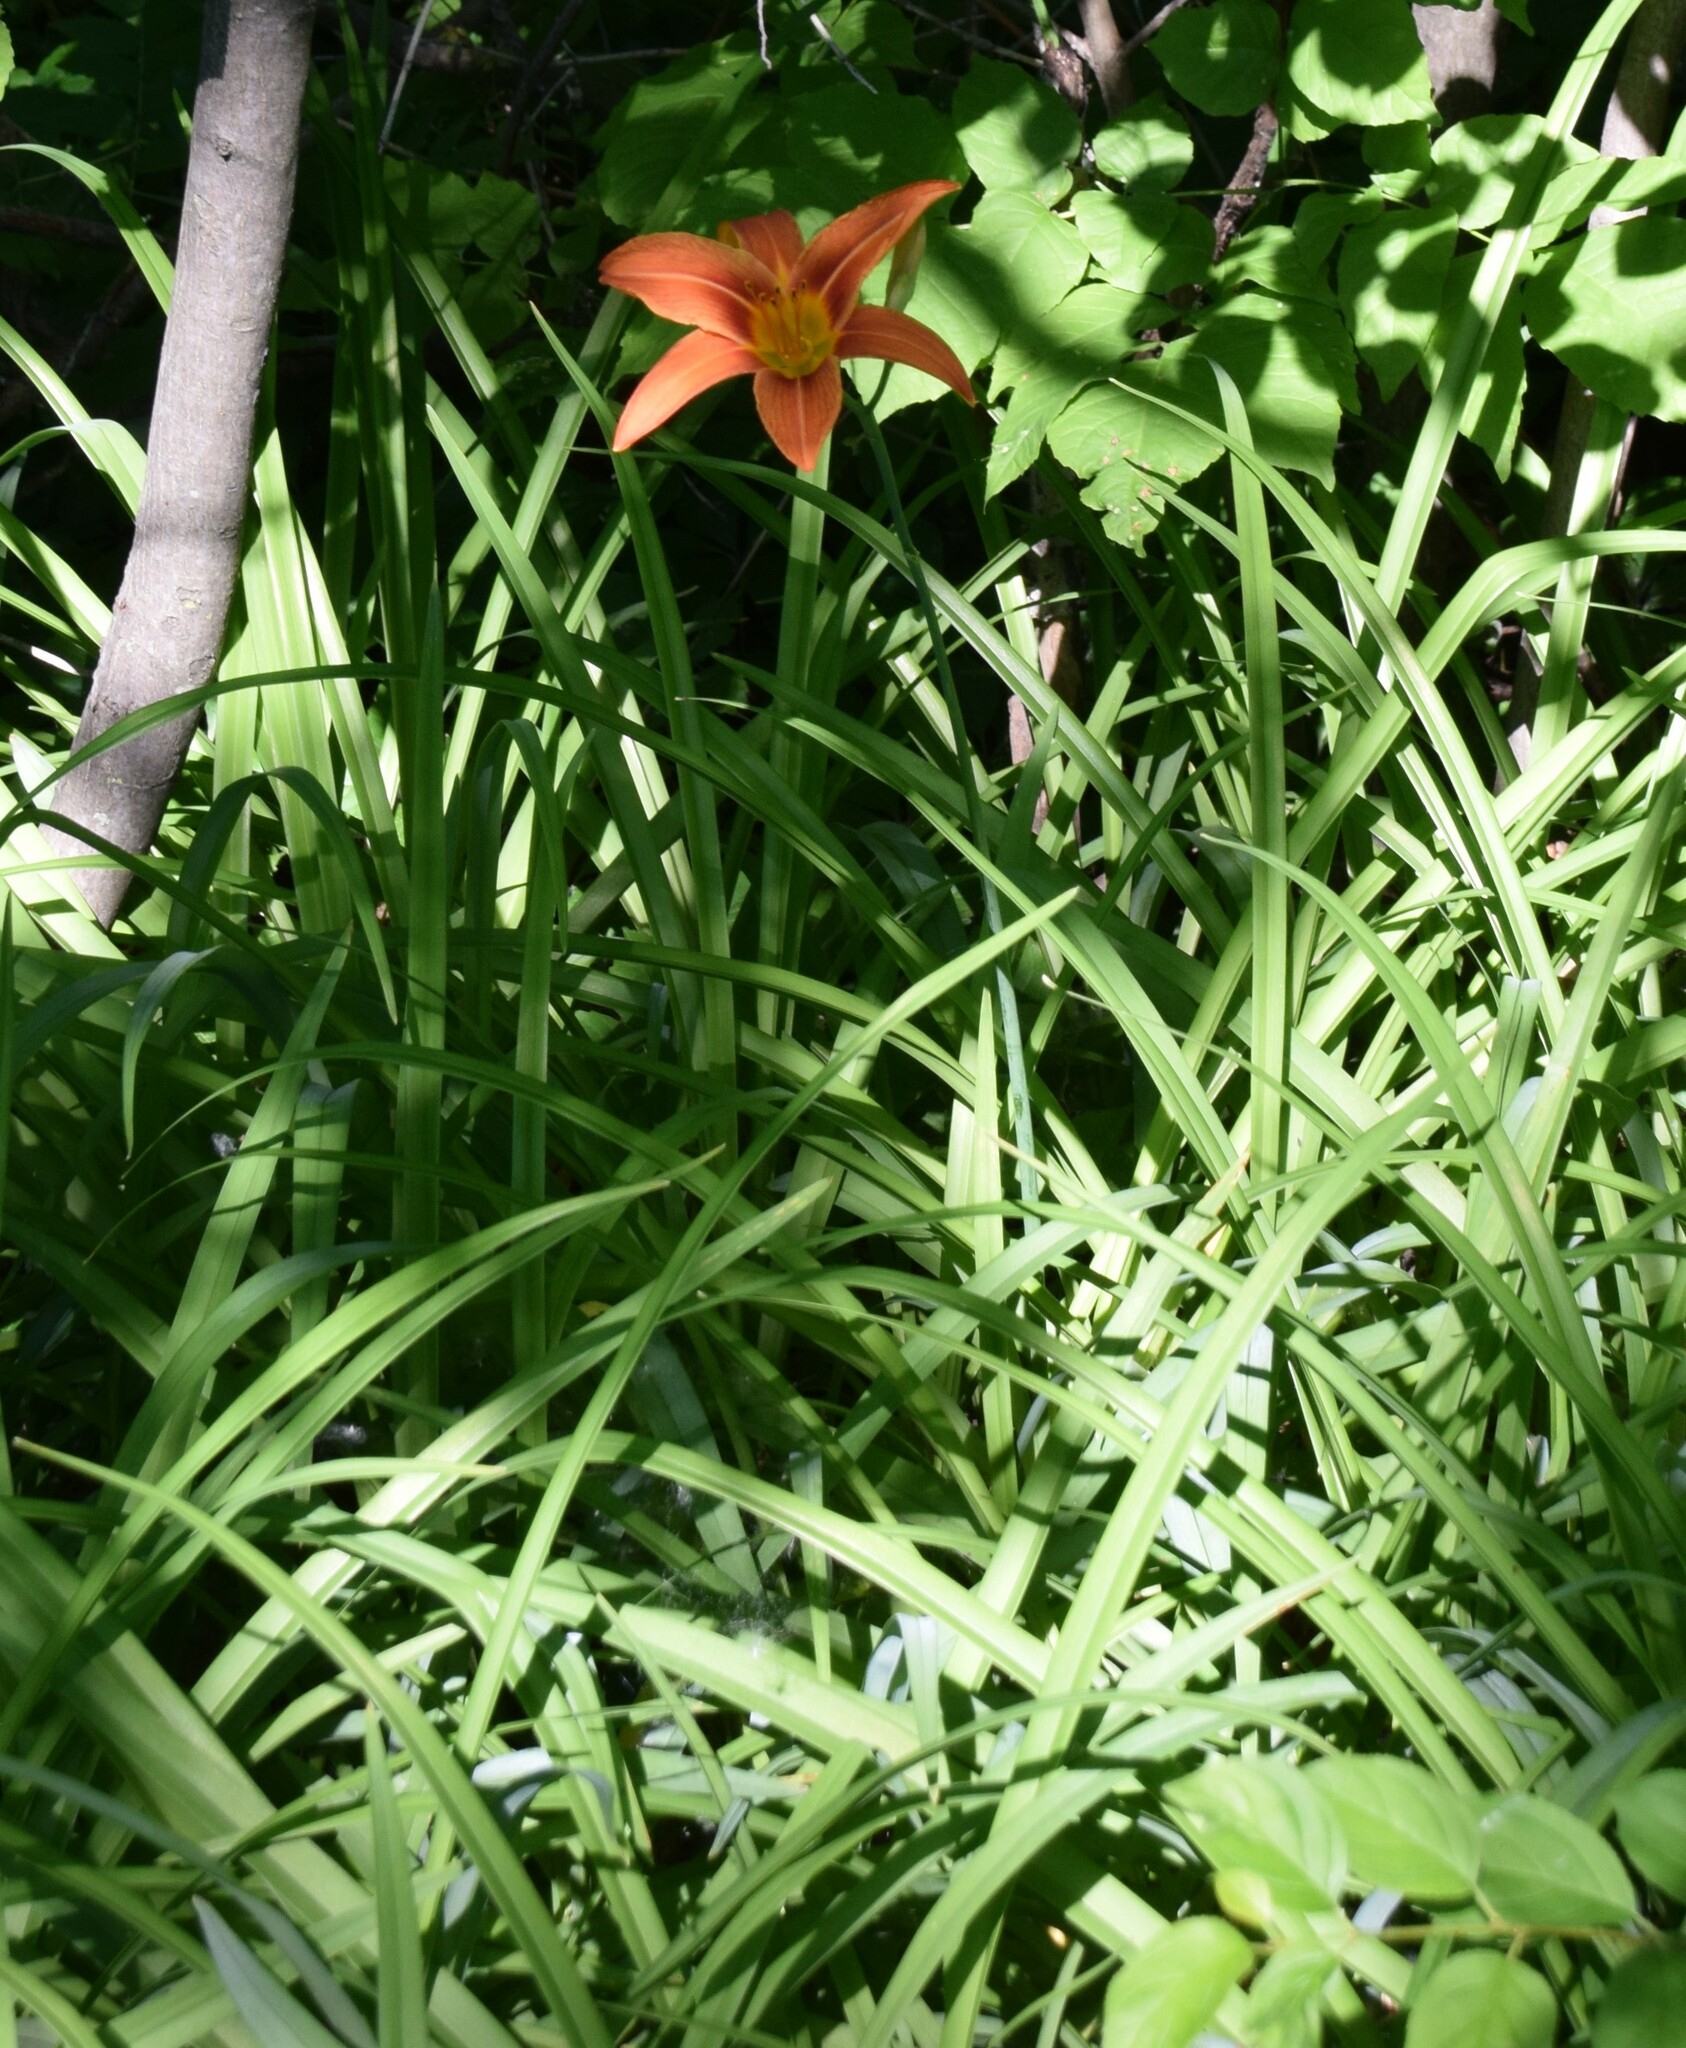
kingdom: Plantae
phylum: Tracheophyta
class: Liliopsida
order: Asparagales
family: Asphodelaceae
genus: Hemerocallis
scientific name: Hemerocallis fulva
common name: Orange day-lily
